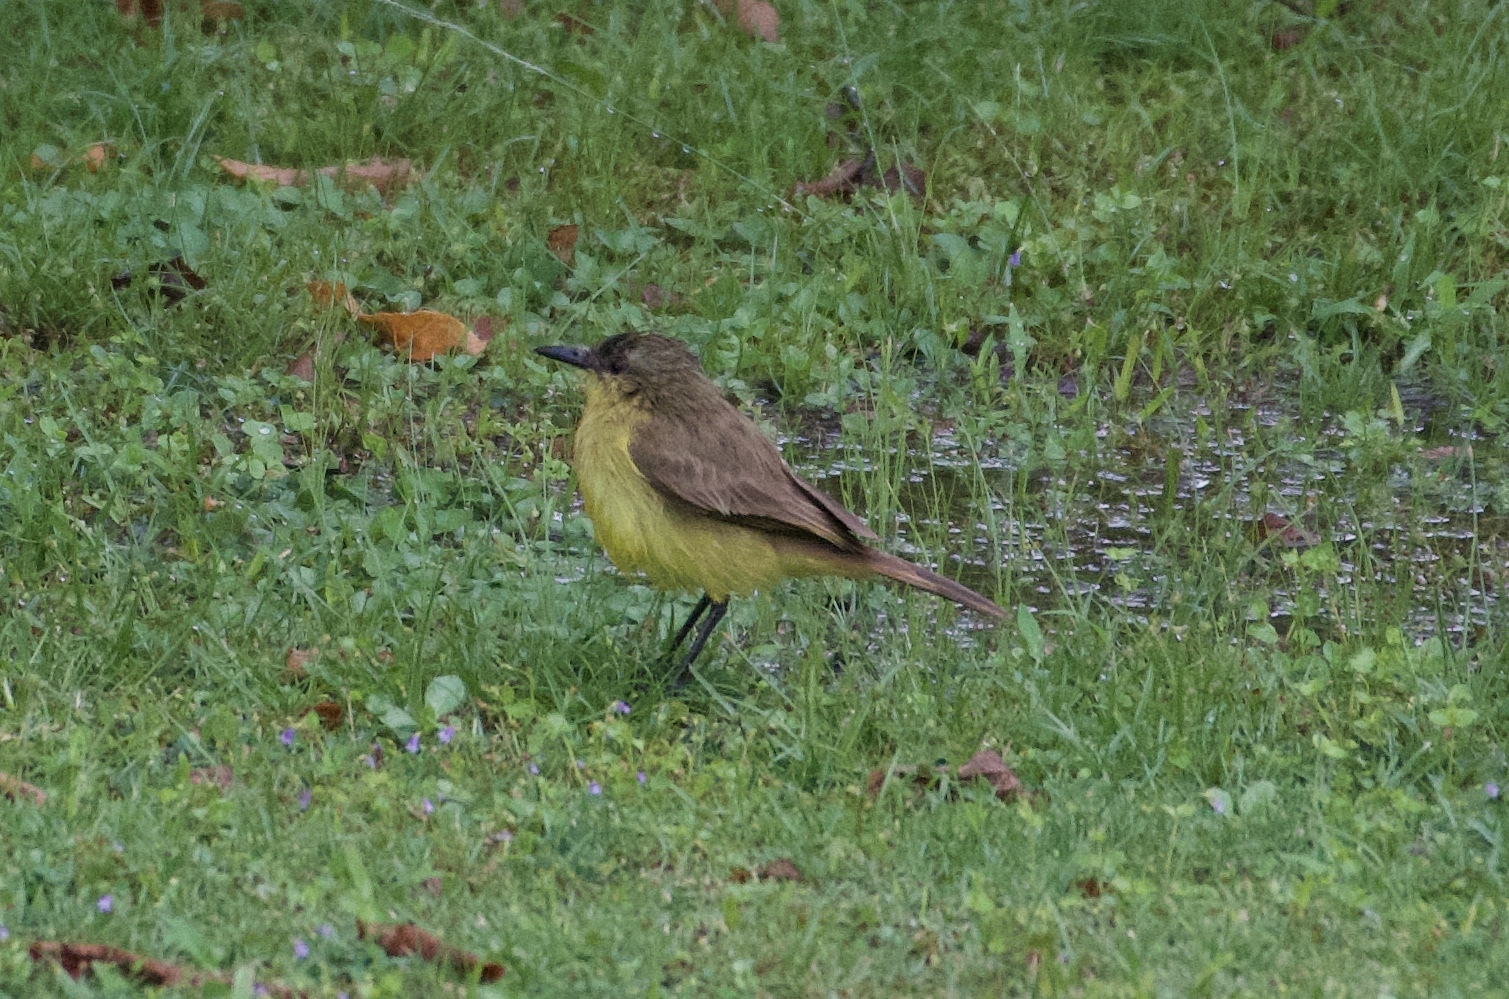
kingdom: Animalia
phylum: Chordata
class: Aves
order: Passeriformes
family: Tyrannidae
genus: Machetornis
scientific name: Machetornis rixosa
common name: Cattle tyrant
